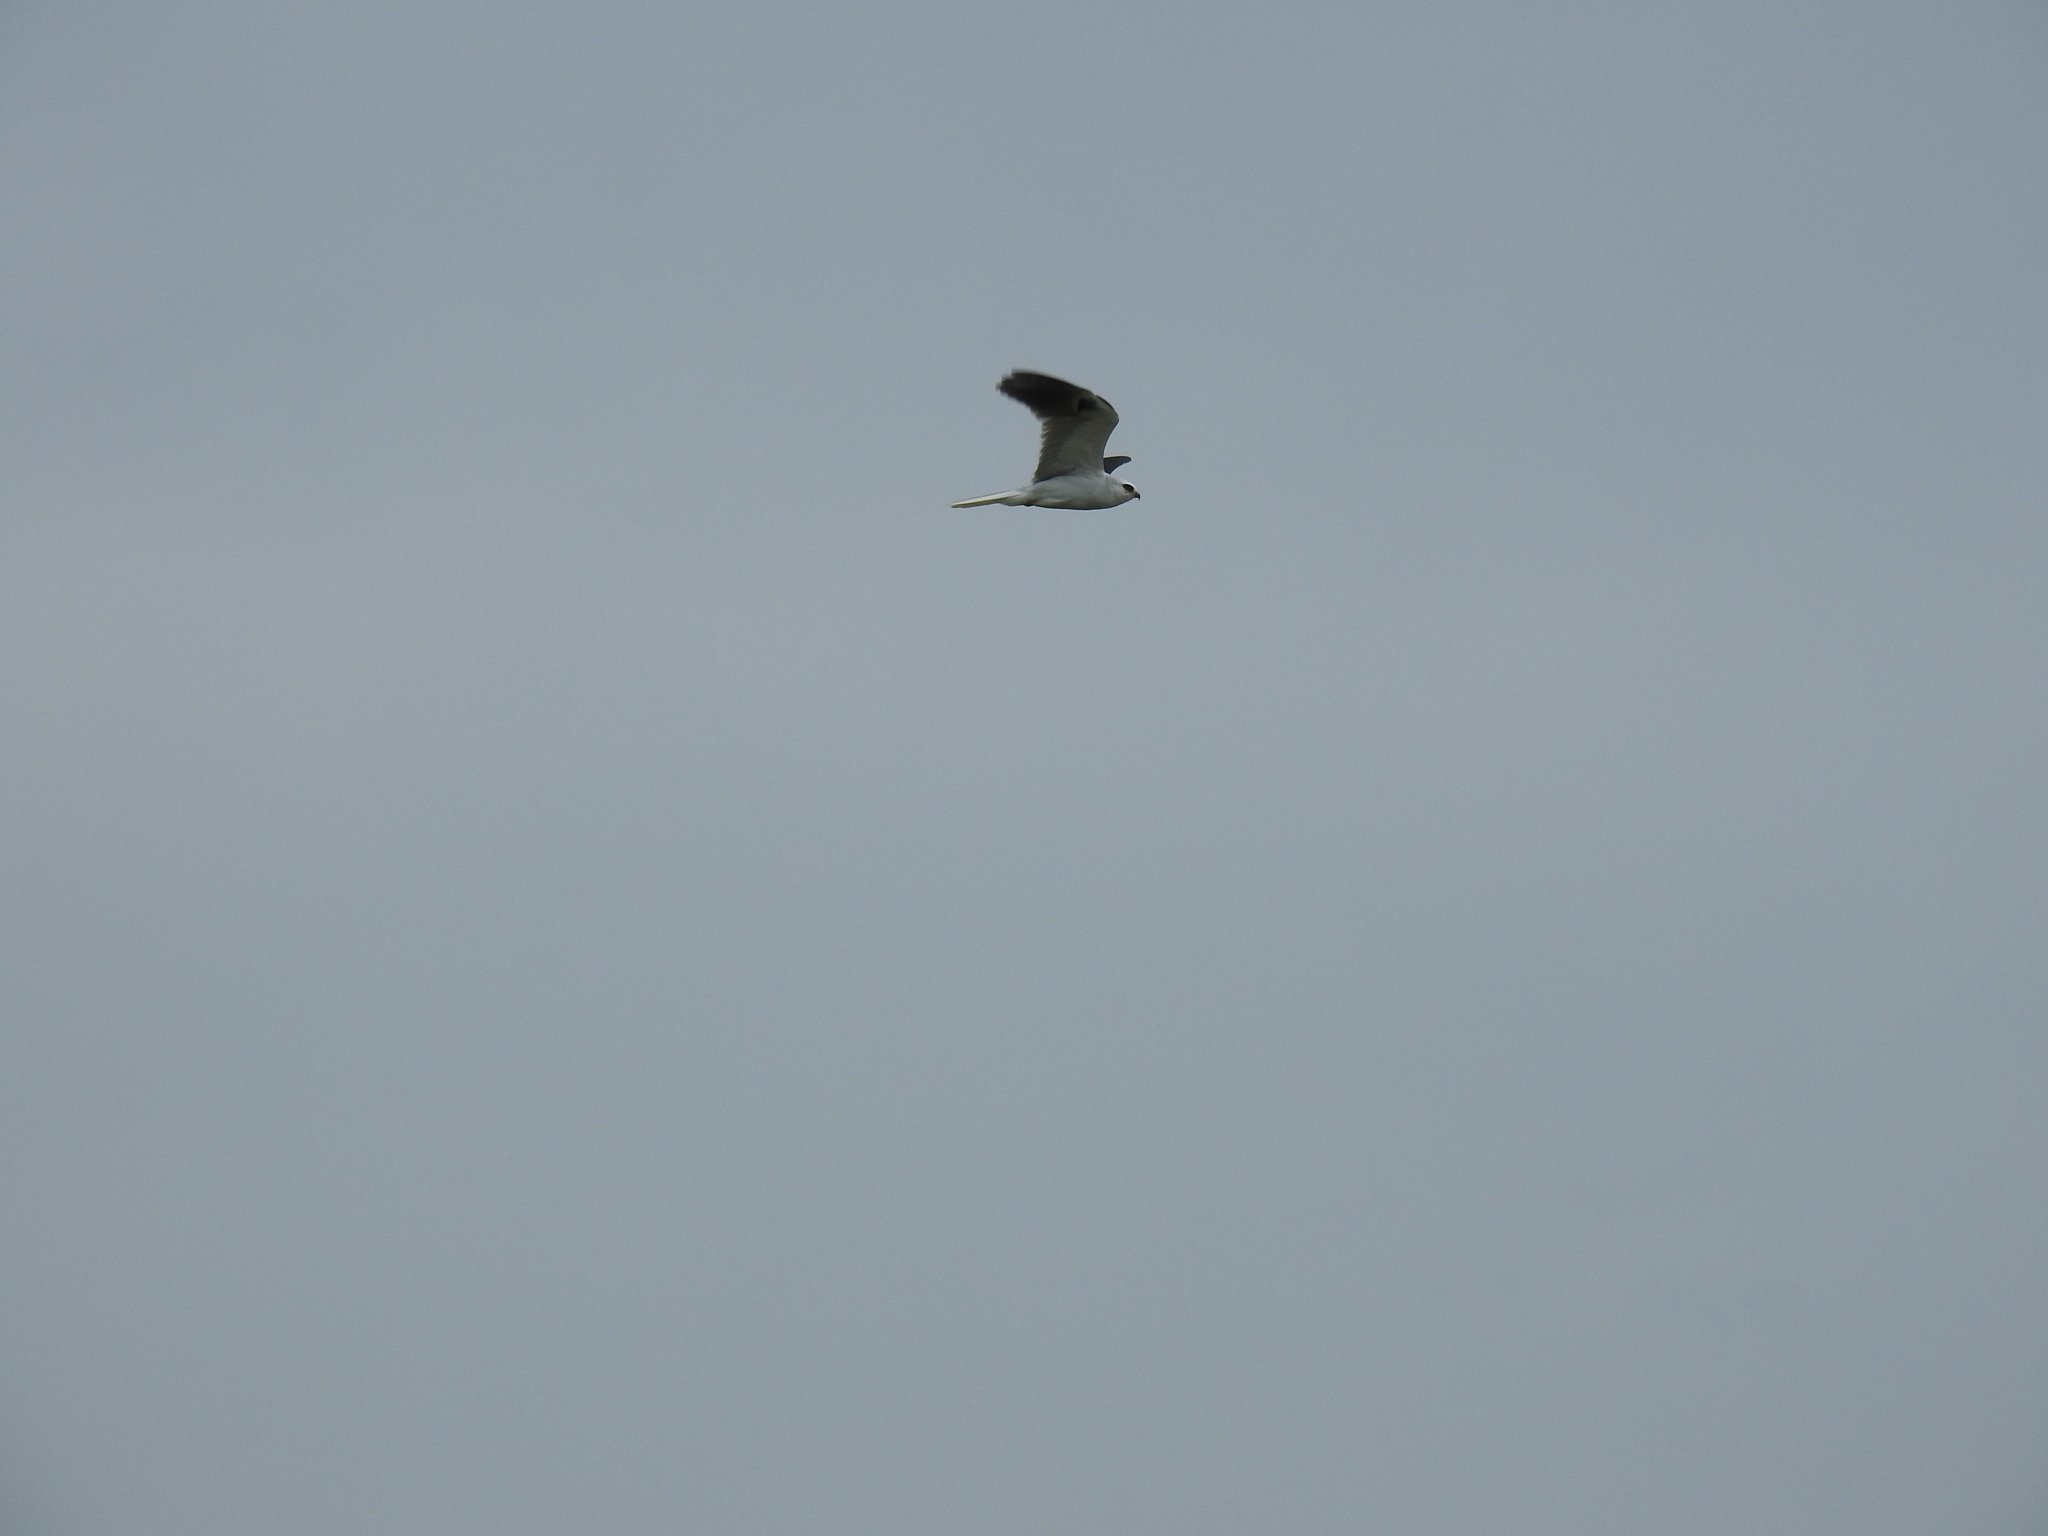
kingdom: Animalia
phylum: Chordata
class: Aves
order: Accipitriformes
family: Accipitridae
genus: Elanus
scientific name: Elanus leucurus
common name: White-tailed kite
